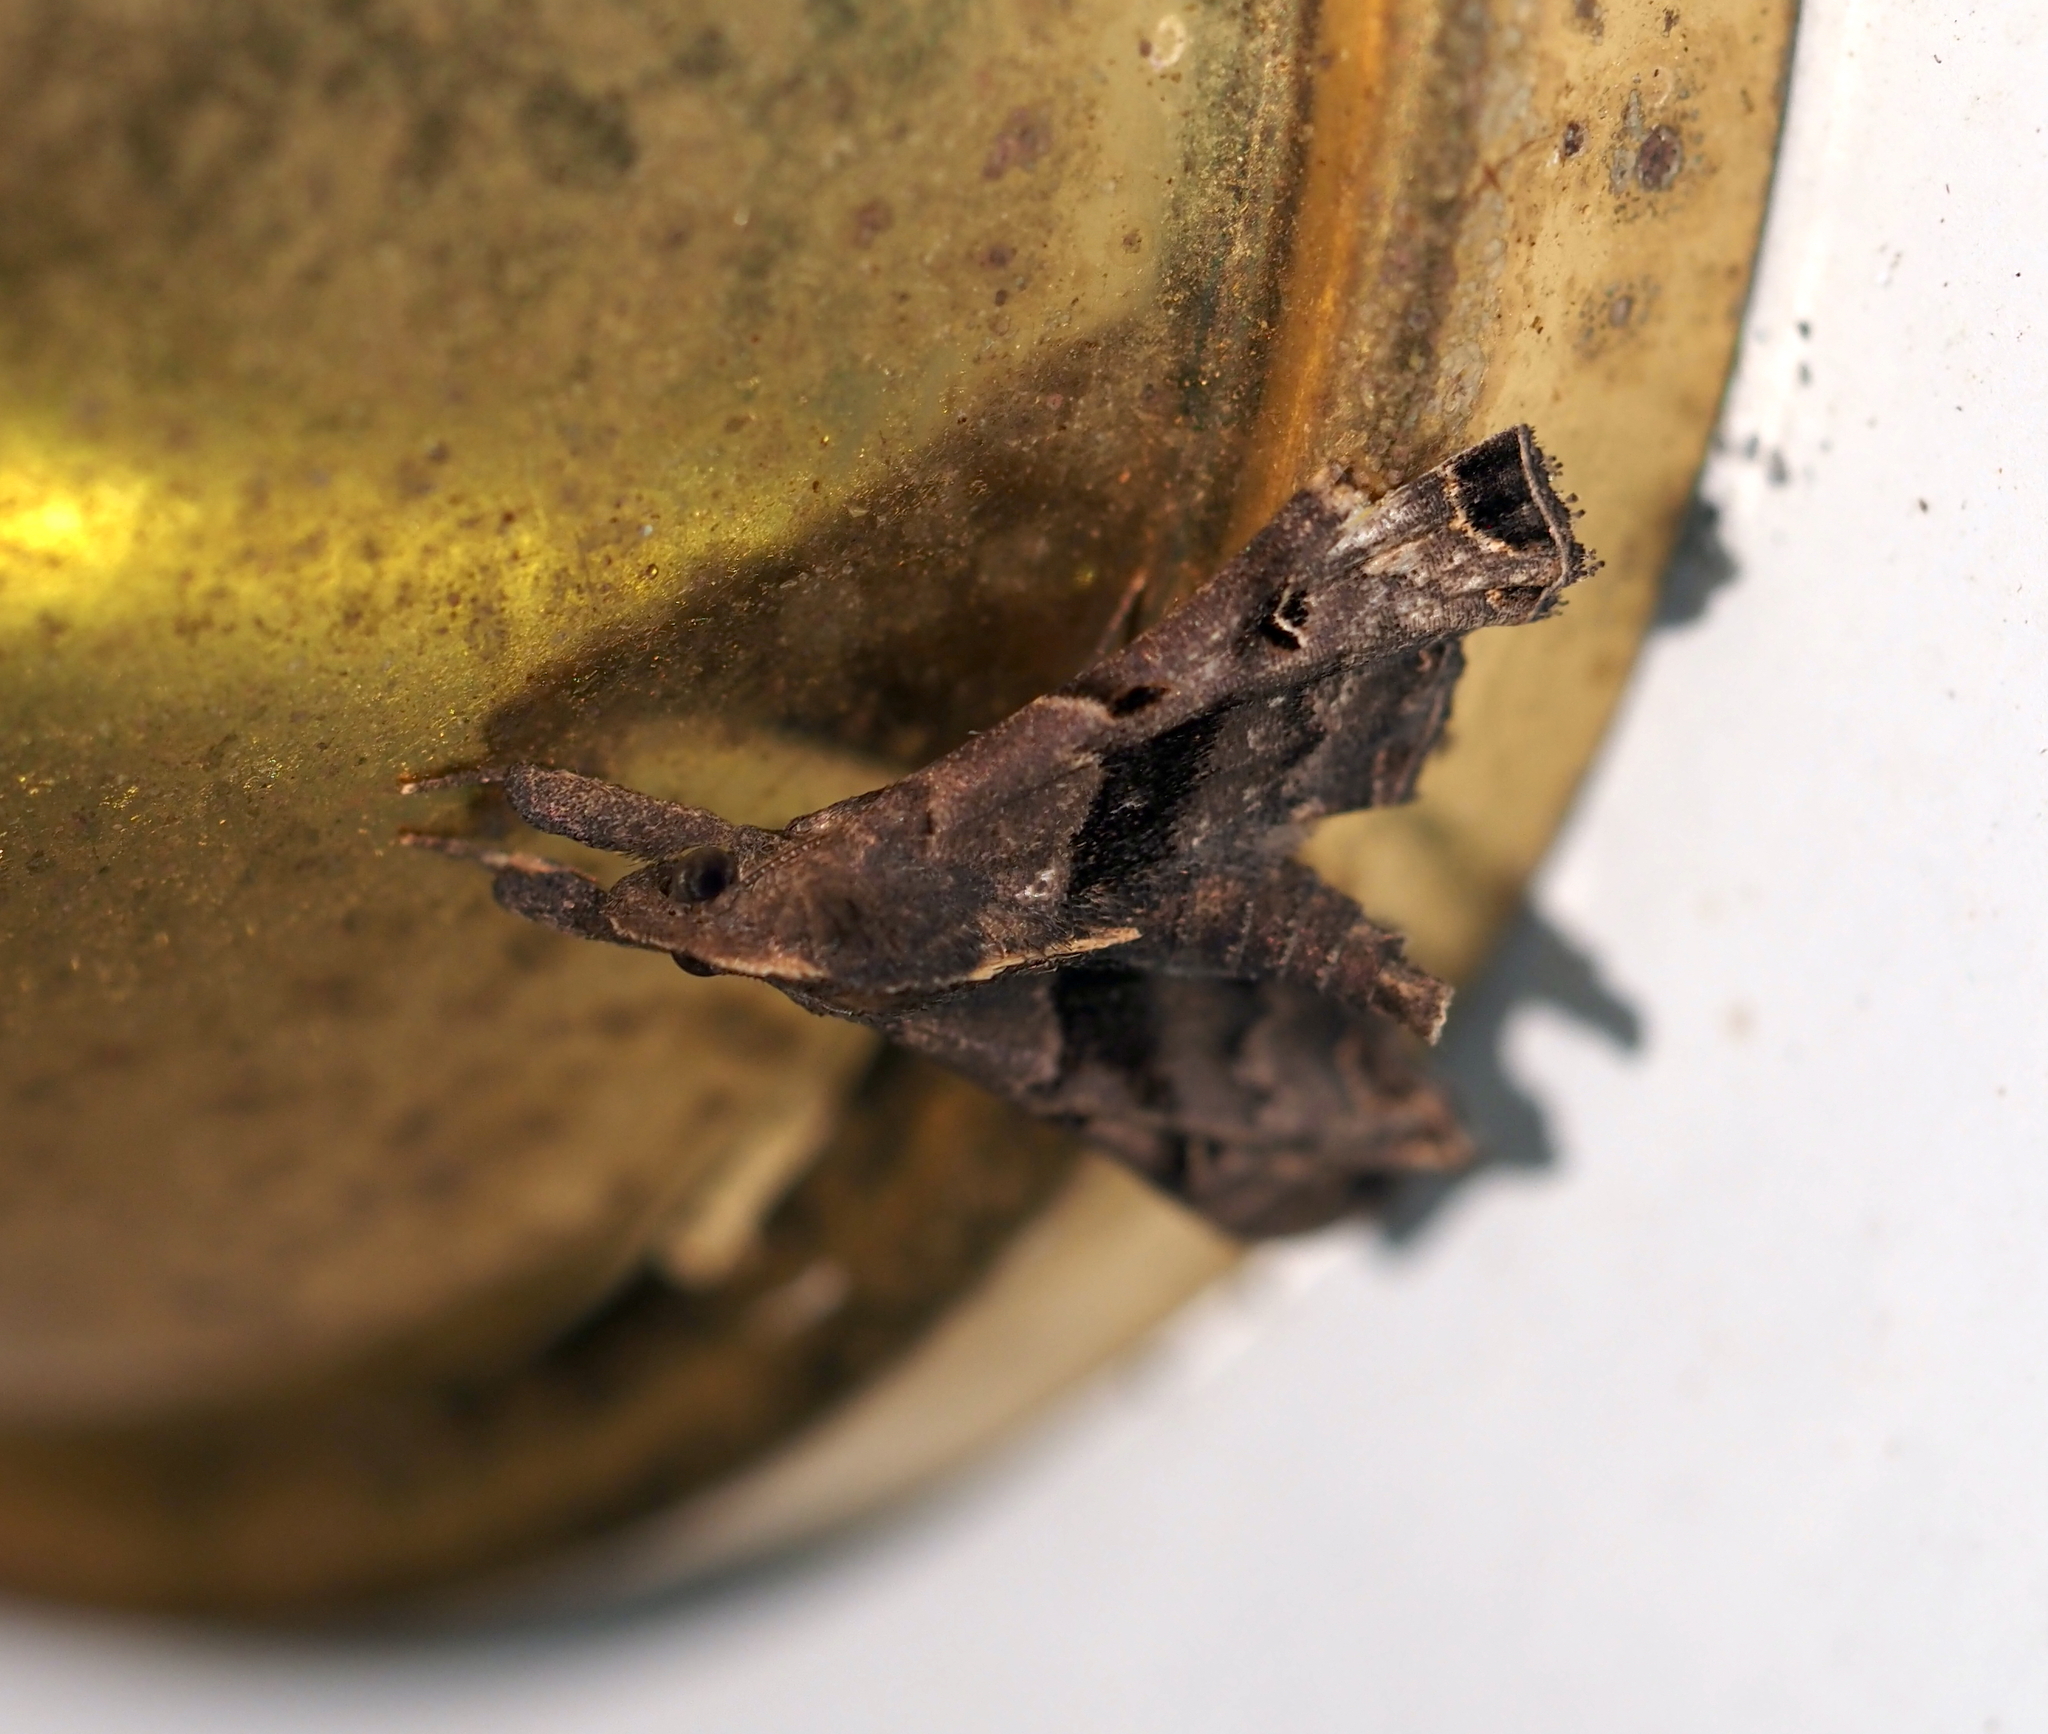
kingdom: Animalia
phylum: Arthropoda
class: Insecta
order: Lepidoptera
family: Erebidae
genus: Palthis
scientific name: Palthis asopialis
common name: Faint-spotted palthis moth
